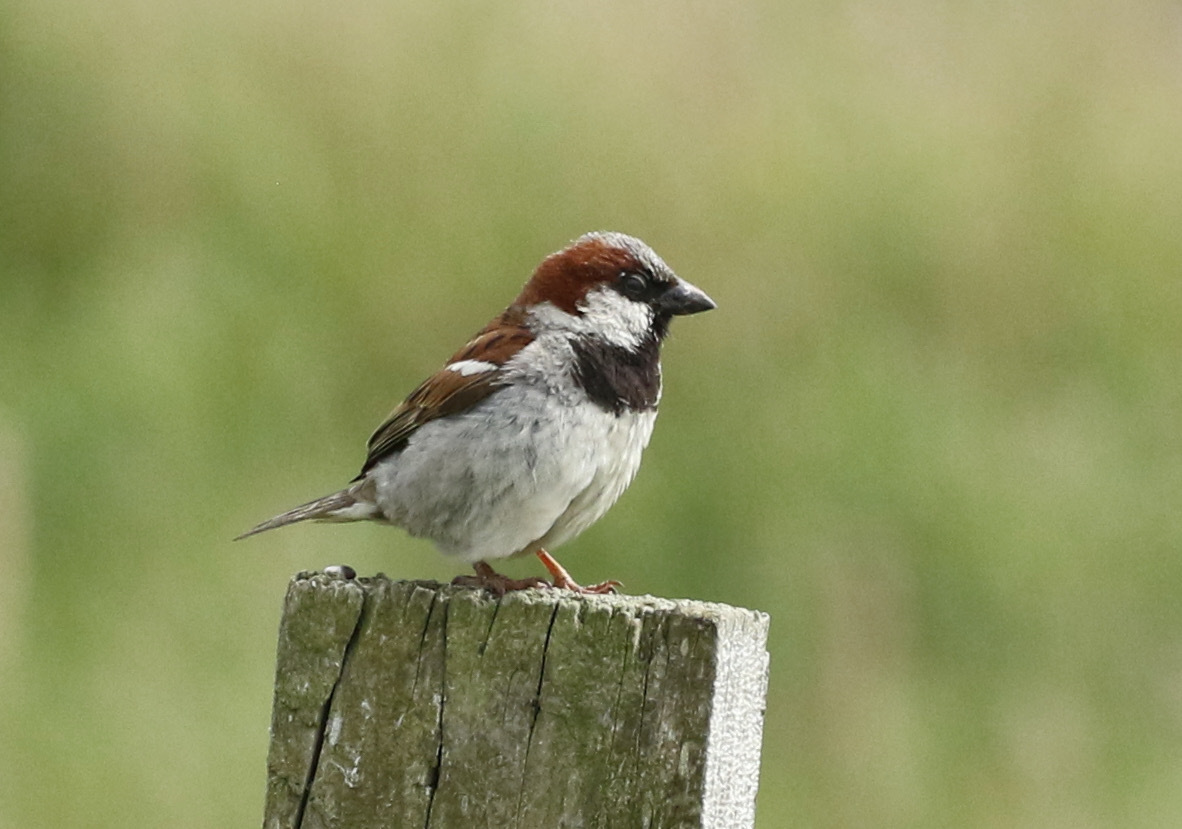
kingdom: Animalia
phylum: Chordata
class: Aves
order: Passeriformes
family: Passeridae
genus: Passer
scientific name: Passer domesticus
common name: House sparrow
